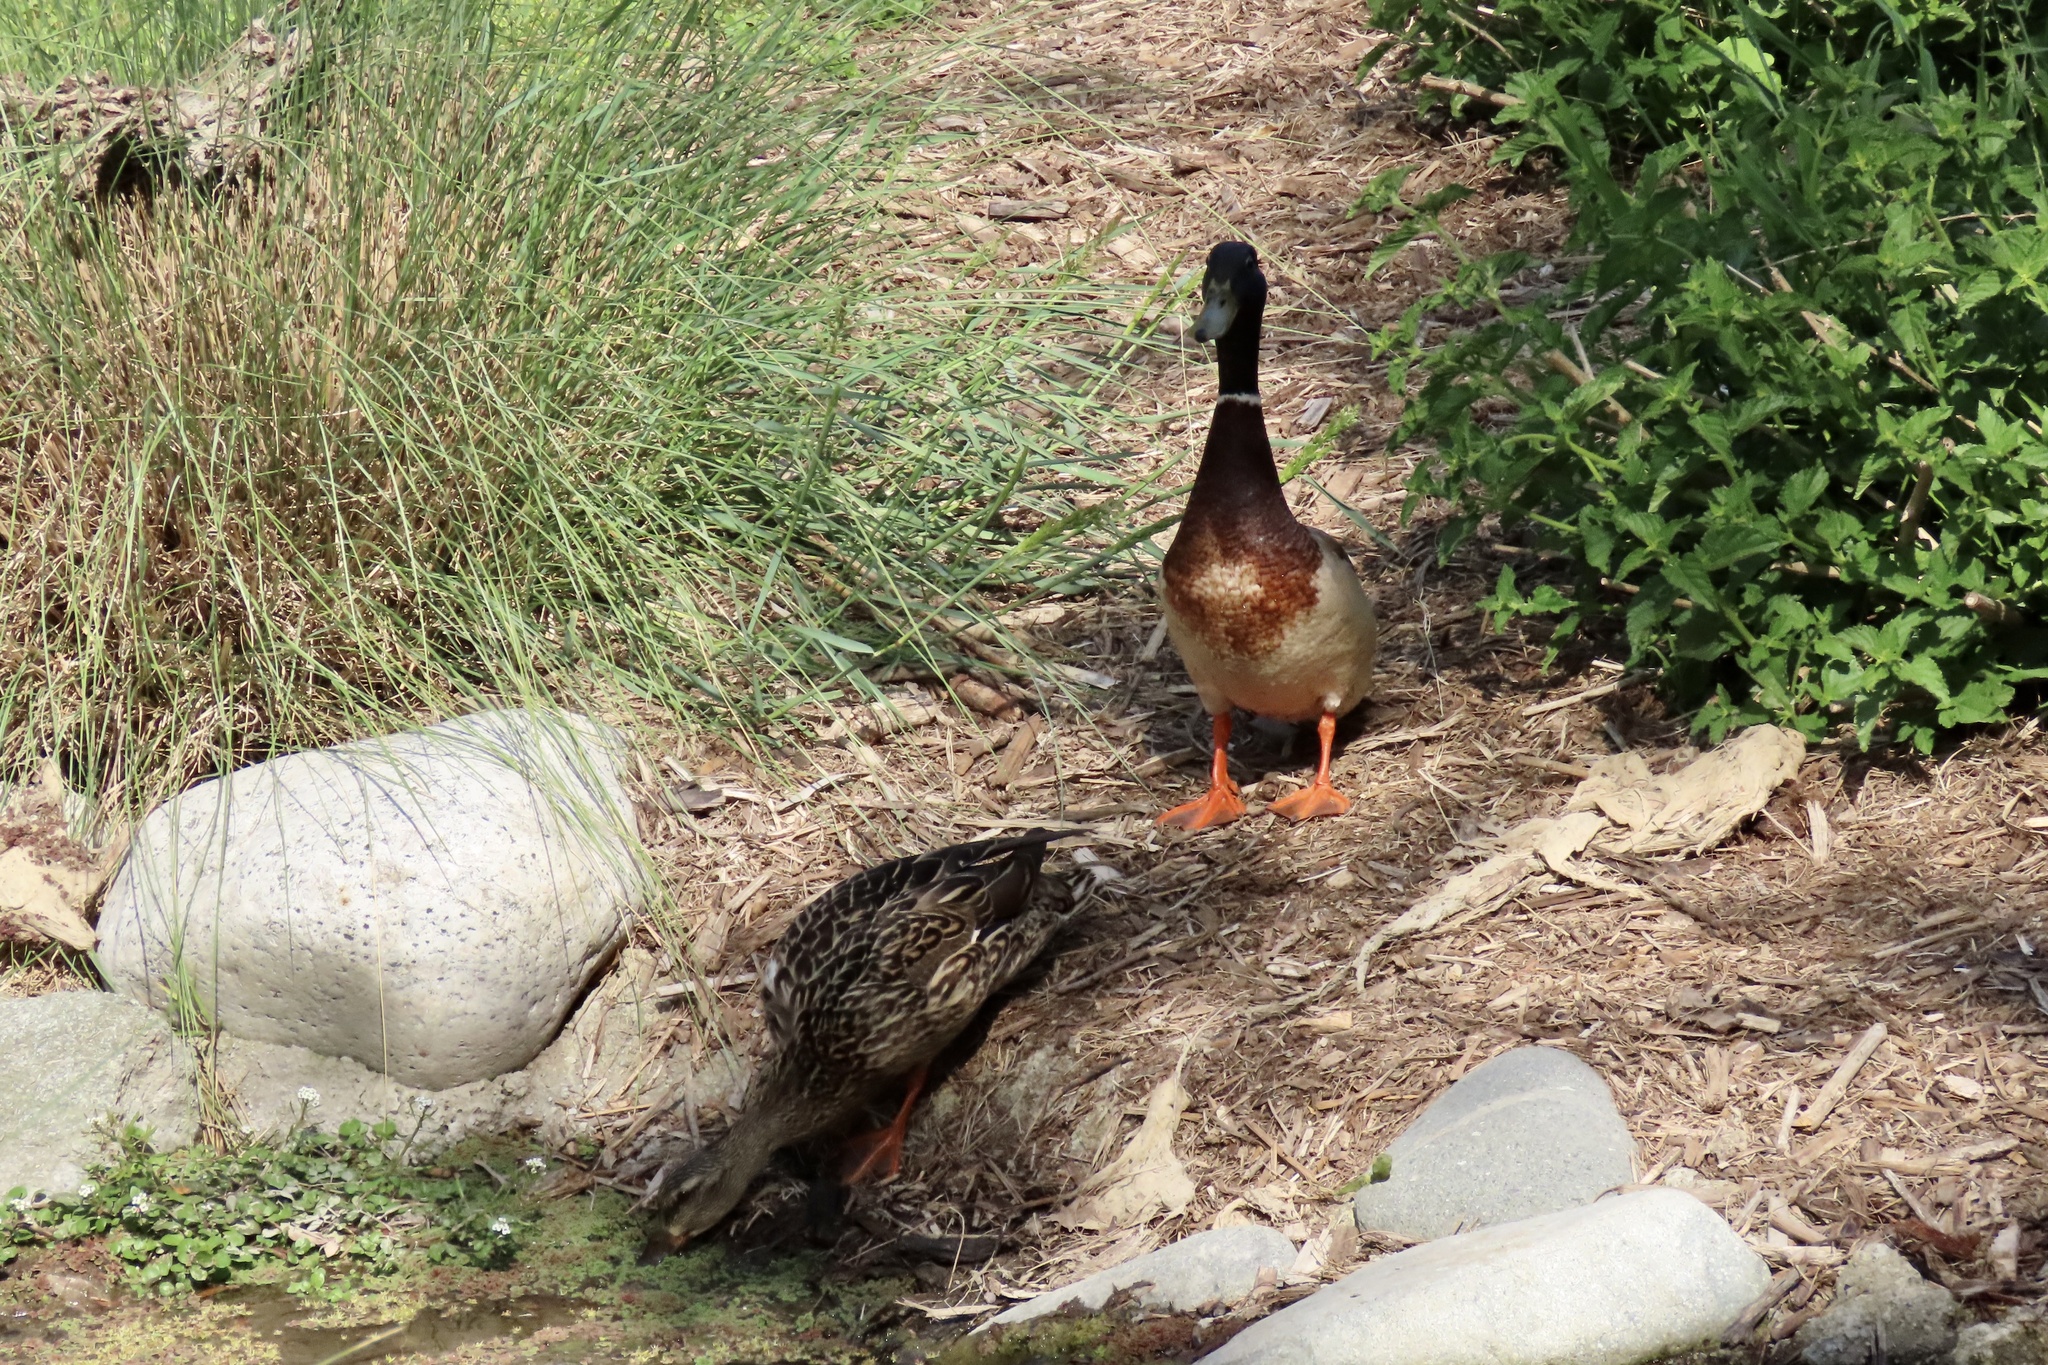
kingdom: Animalia
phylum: Chordata
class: Aves
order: Anseriformes
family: Anatidae
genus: Anas
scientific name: Anas platyrhynchos
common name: Mallard
